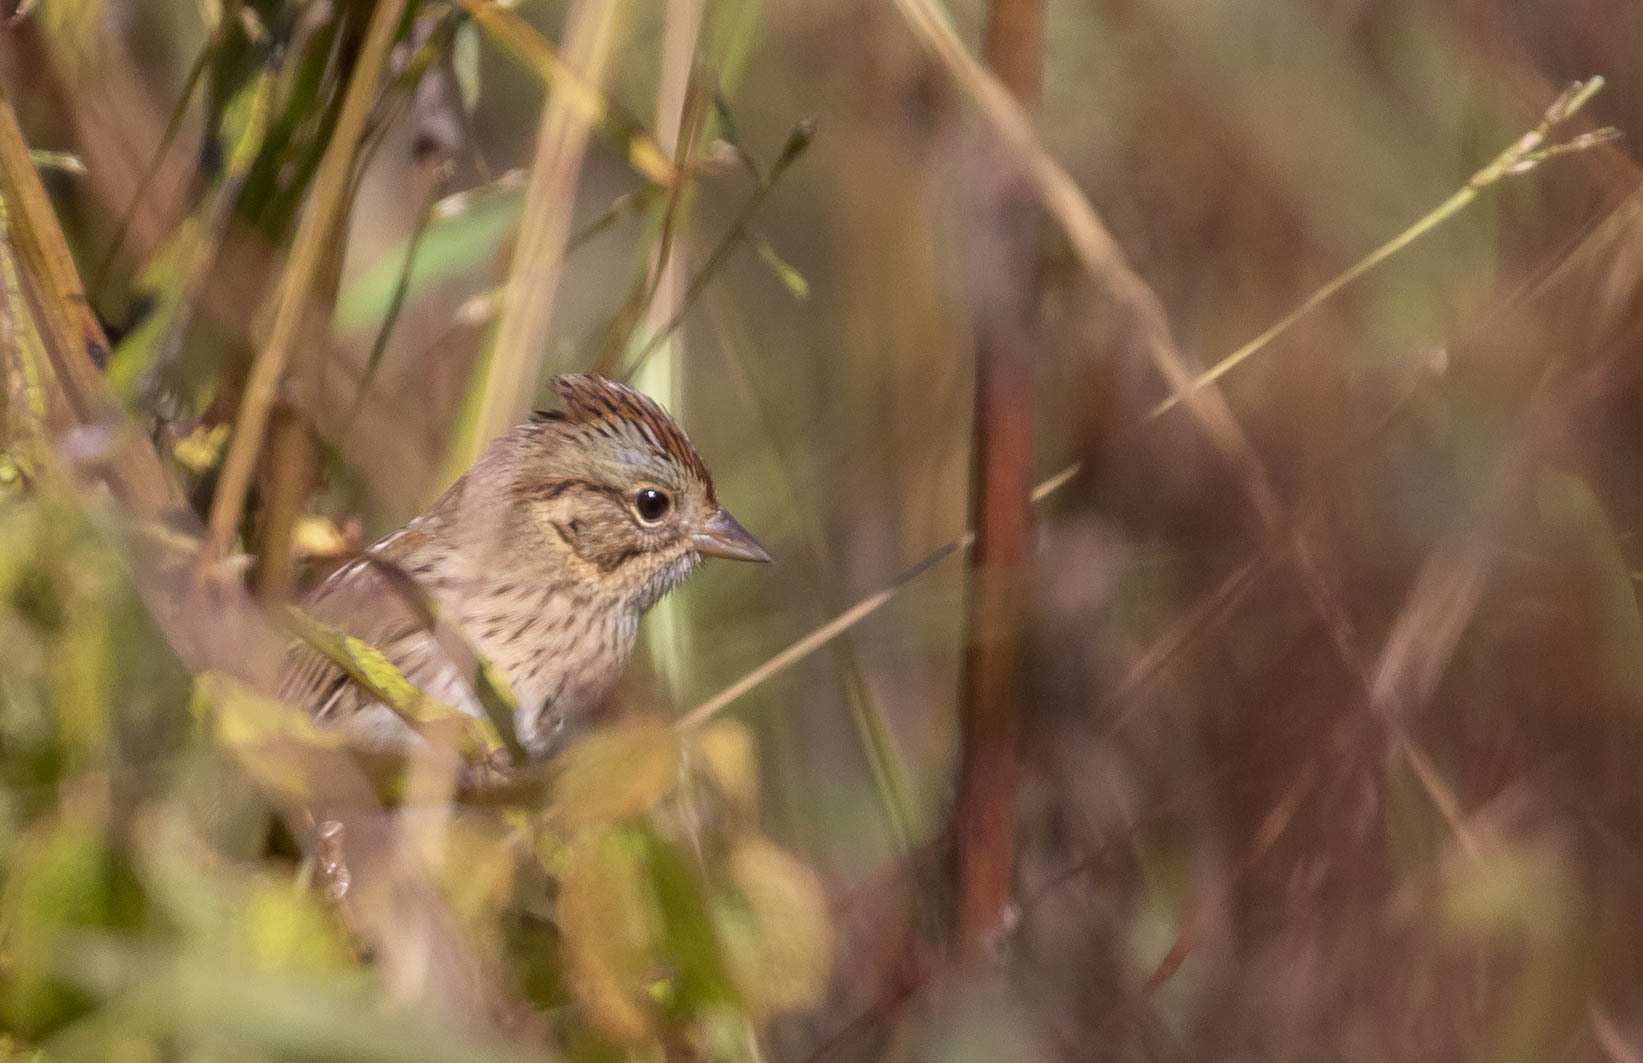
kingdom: Animalia
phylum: Chordata
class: Aves
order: Passeriformes
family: Passerellidae
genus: Melospiza
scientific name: Melospiza lincolnii
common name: Lincoln's sparrow
